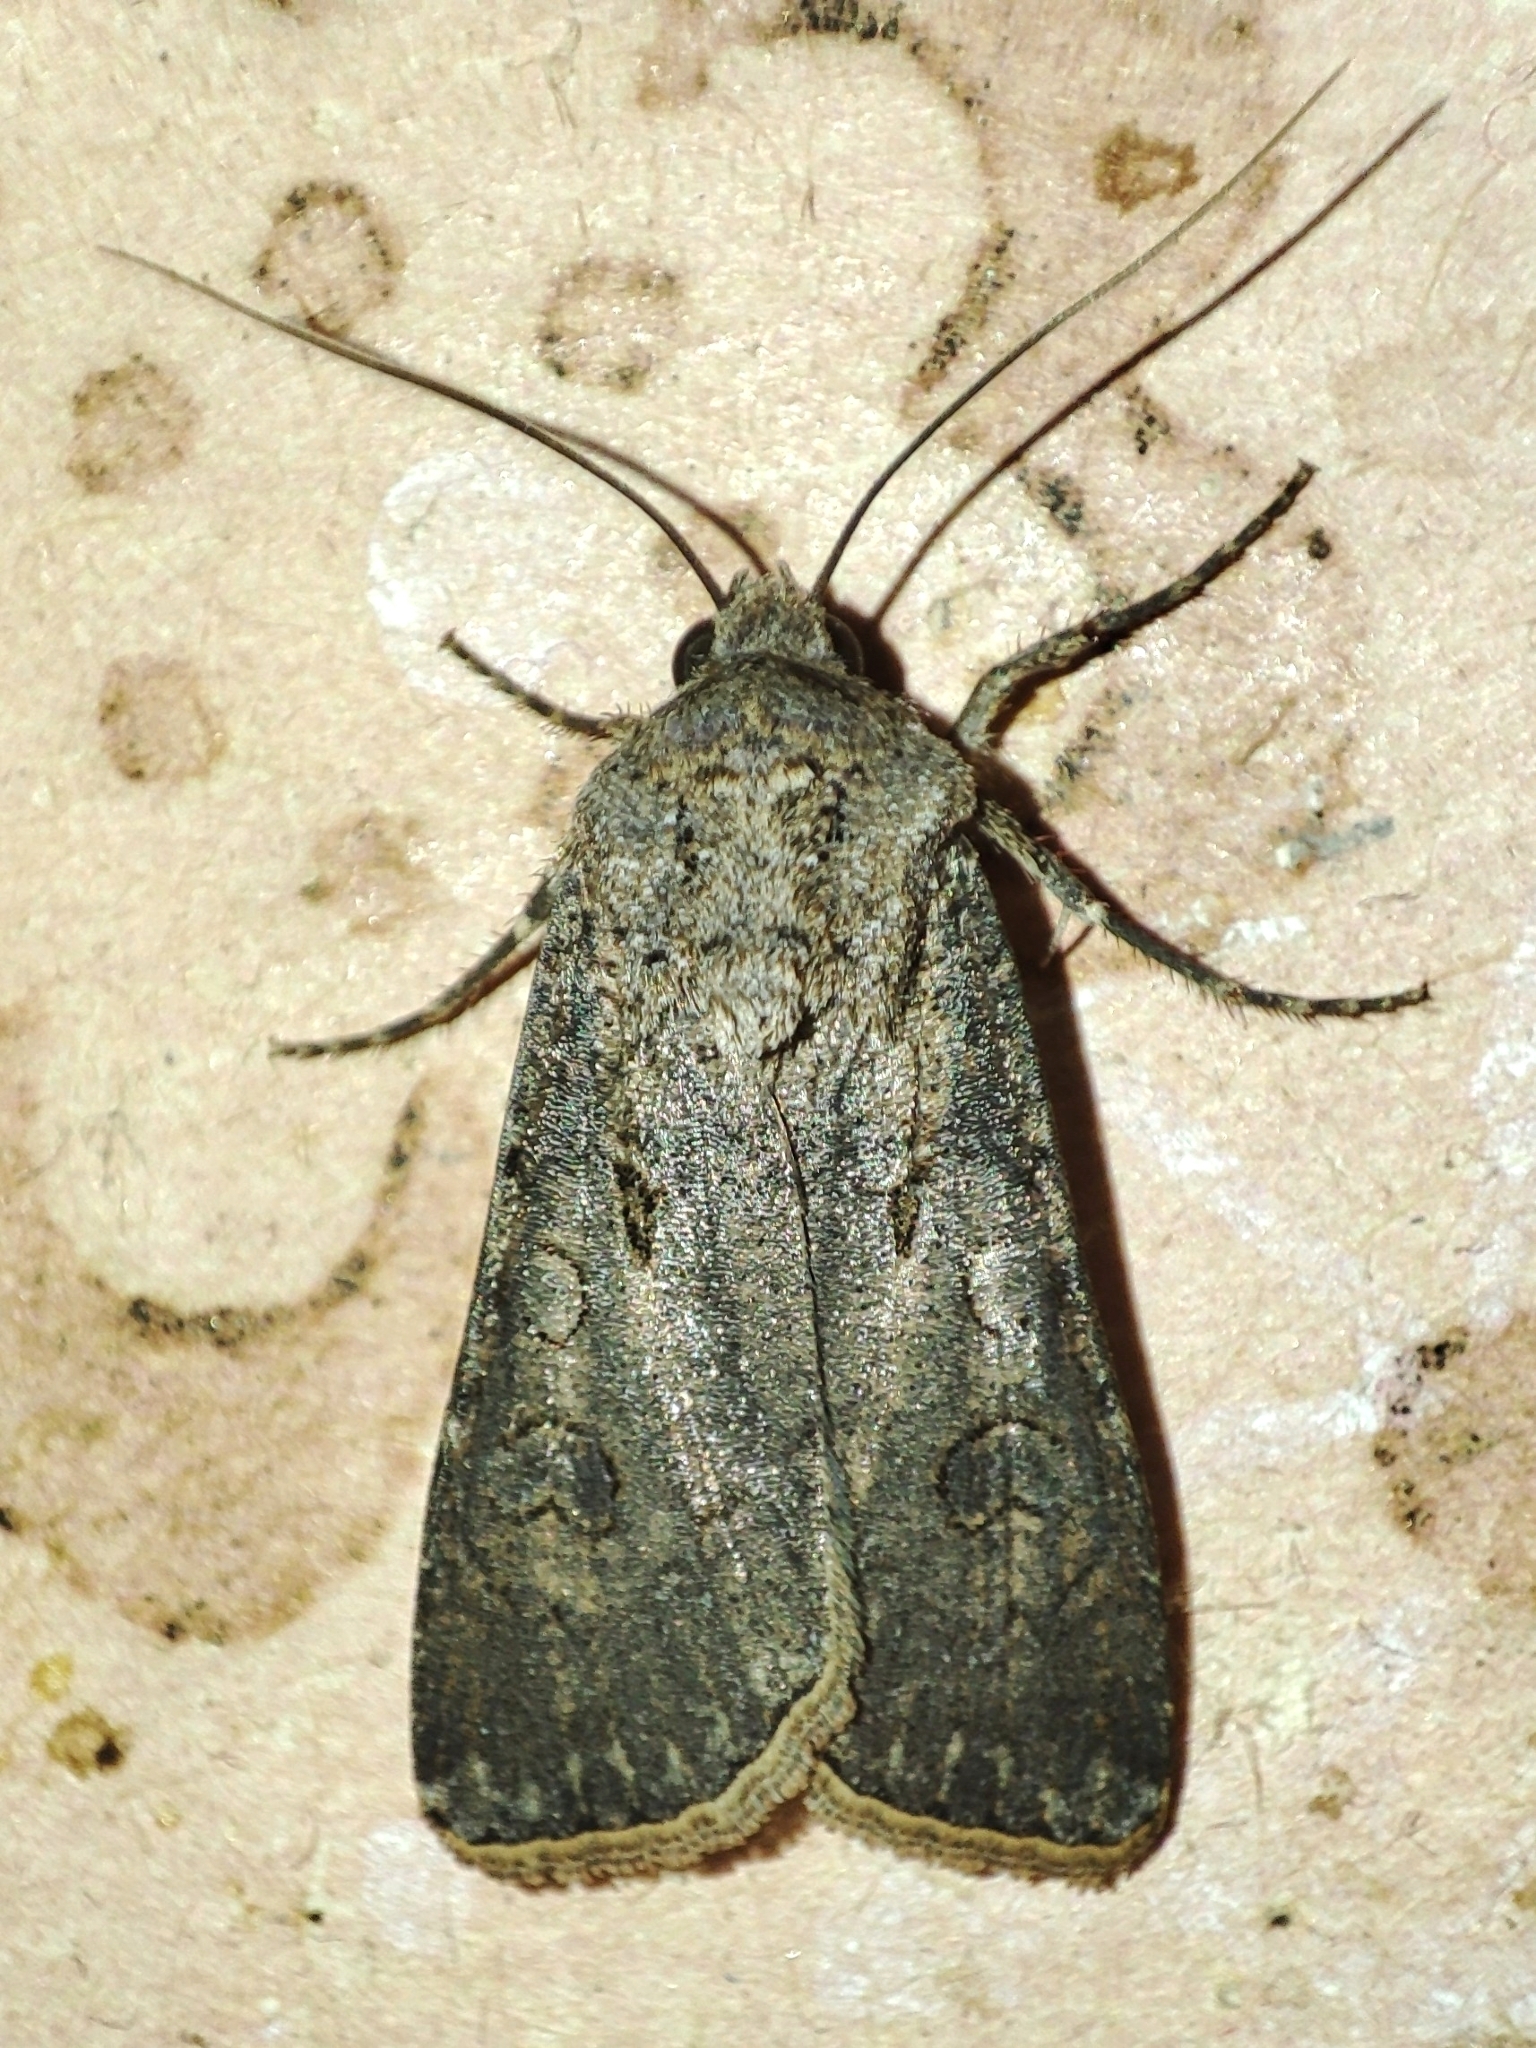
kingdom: Animalia
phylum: Arthropoda
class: Insecta
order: Lepidoptera
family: Noctuidae
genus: Agrotis
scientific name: Agrotis segetum
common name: Turnip moth
